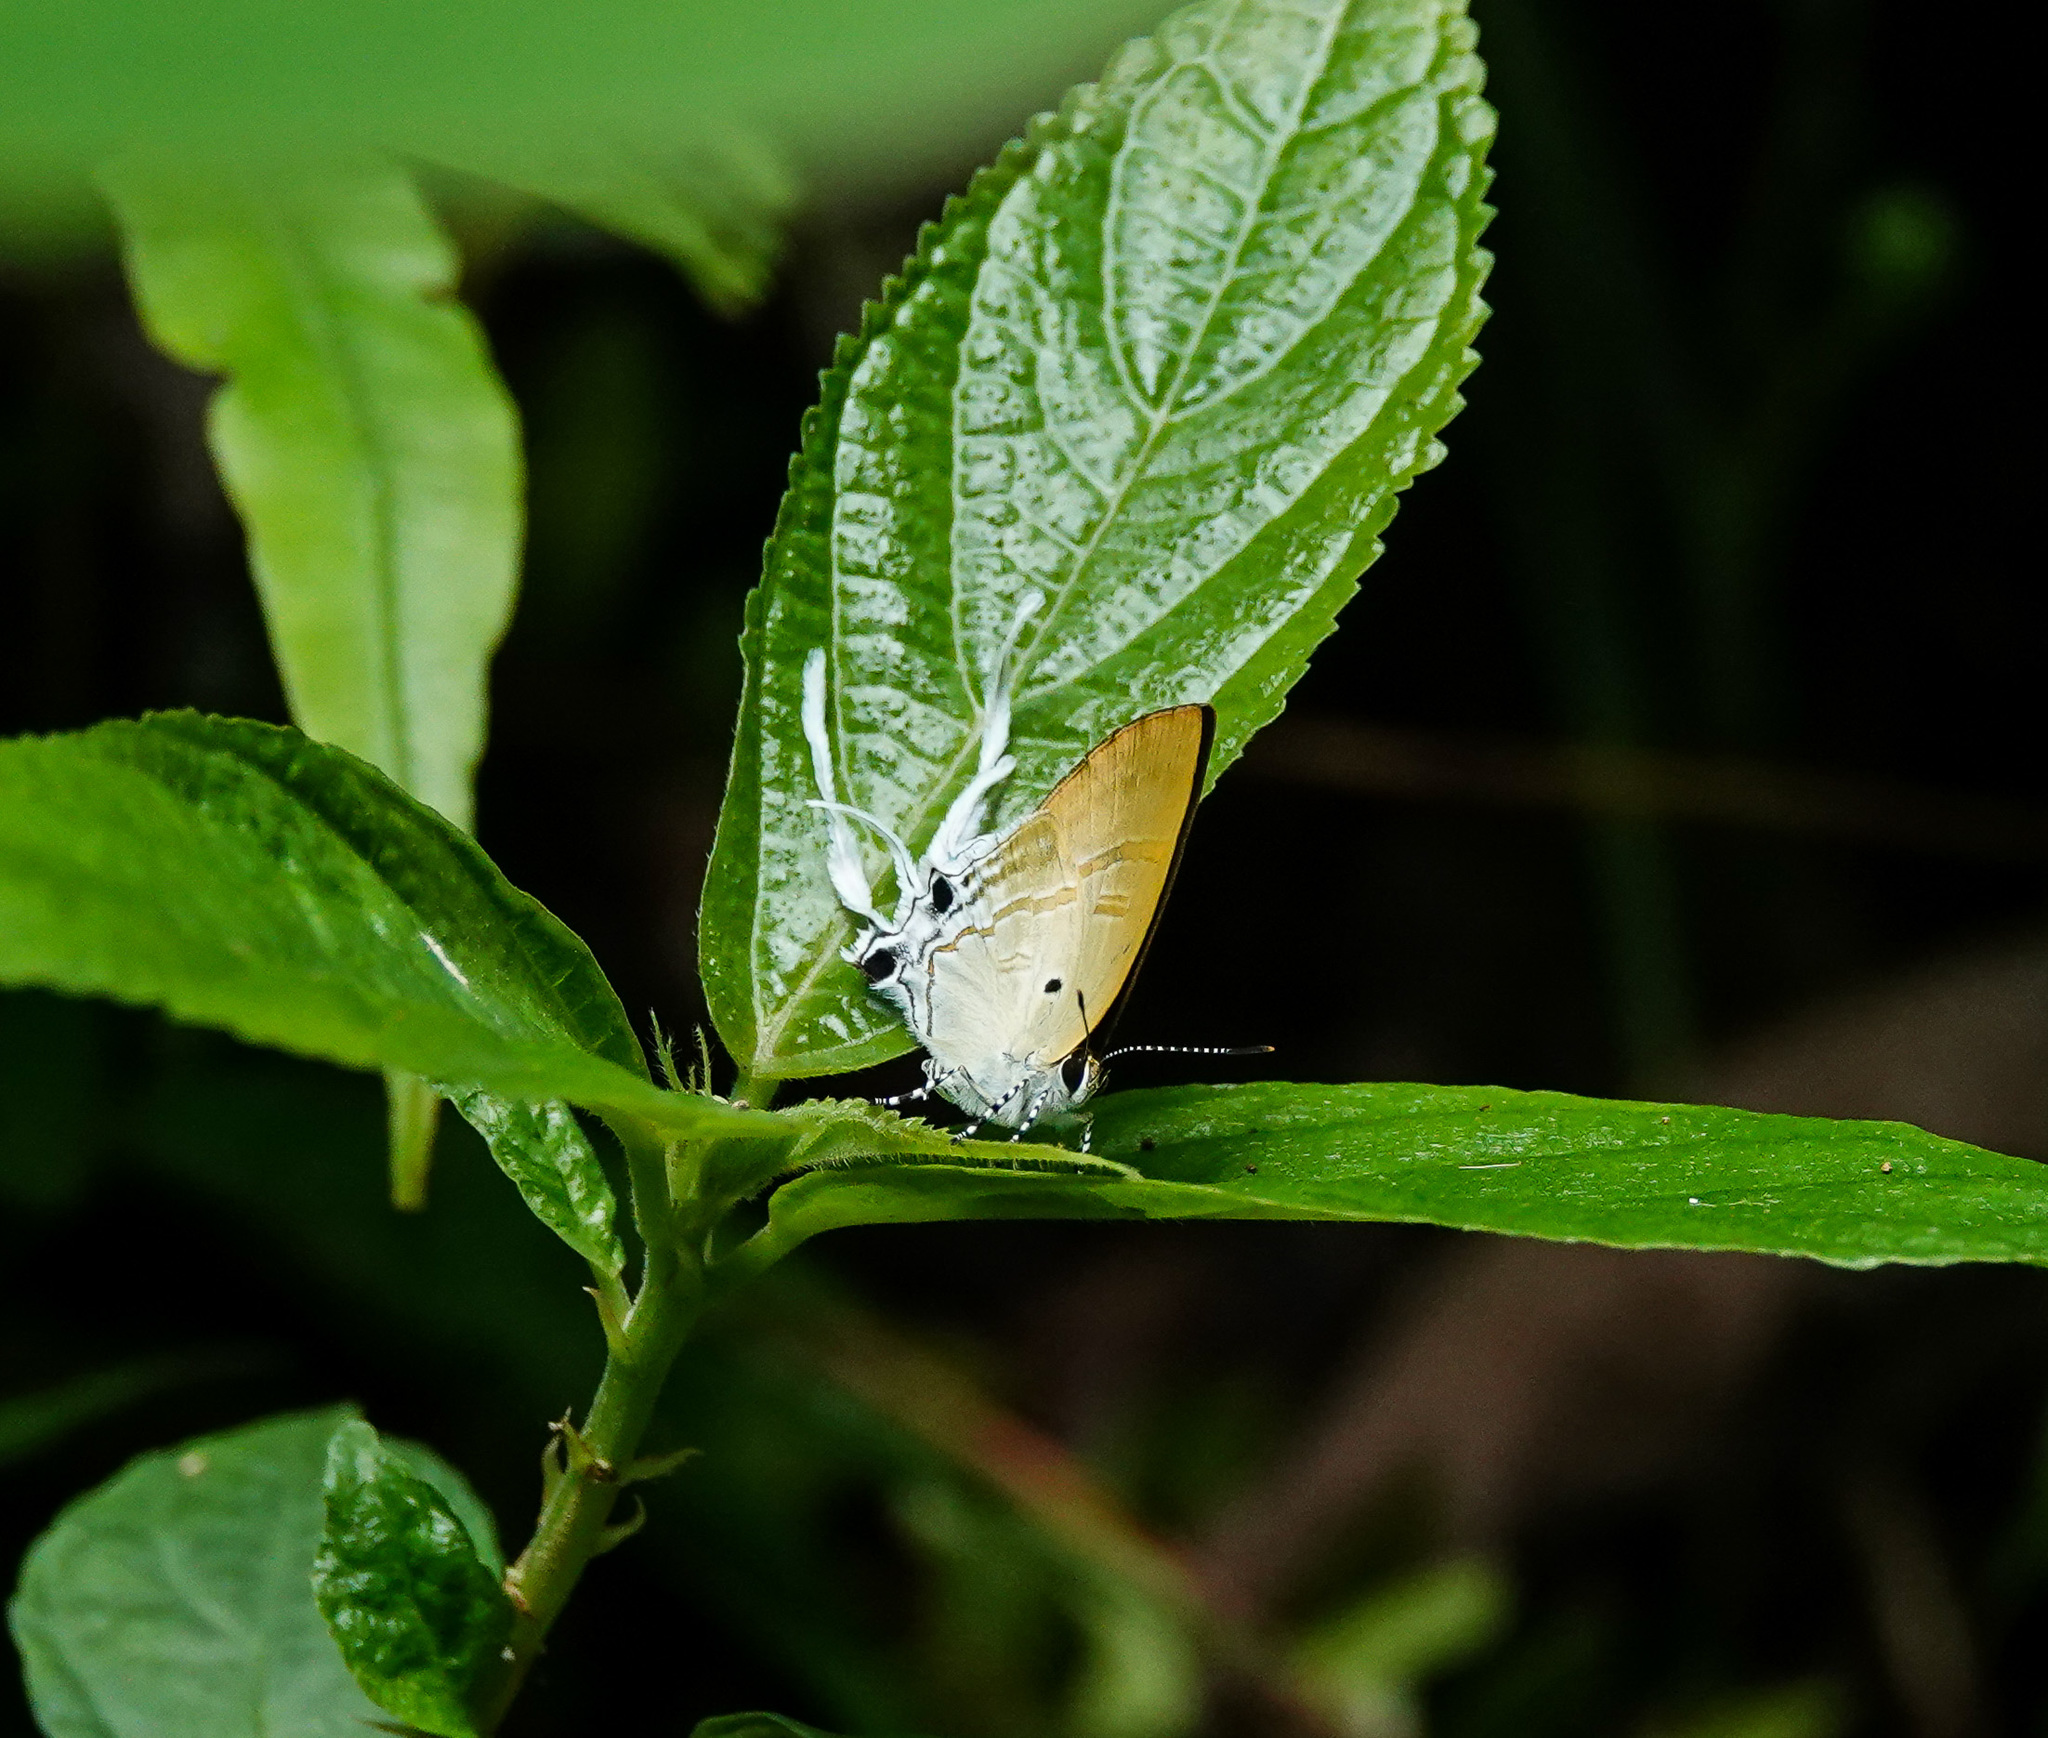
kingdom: Animalia
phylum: Arthropoda
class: Insecta
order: Lepidoptera
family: Lycaenidae
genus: Zeltus
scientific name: Zeltus amasa
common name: Fluffy tit
